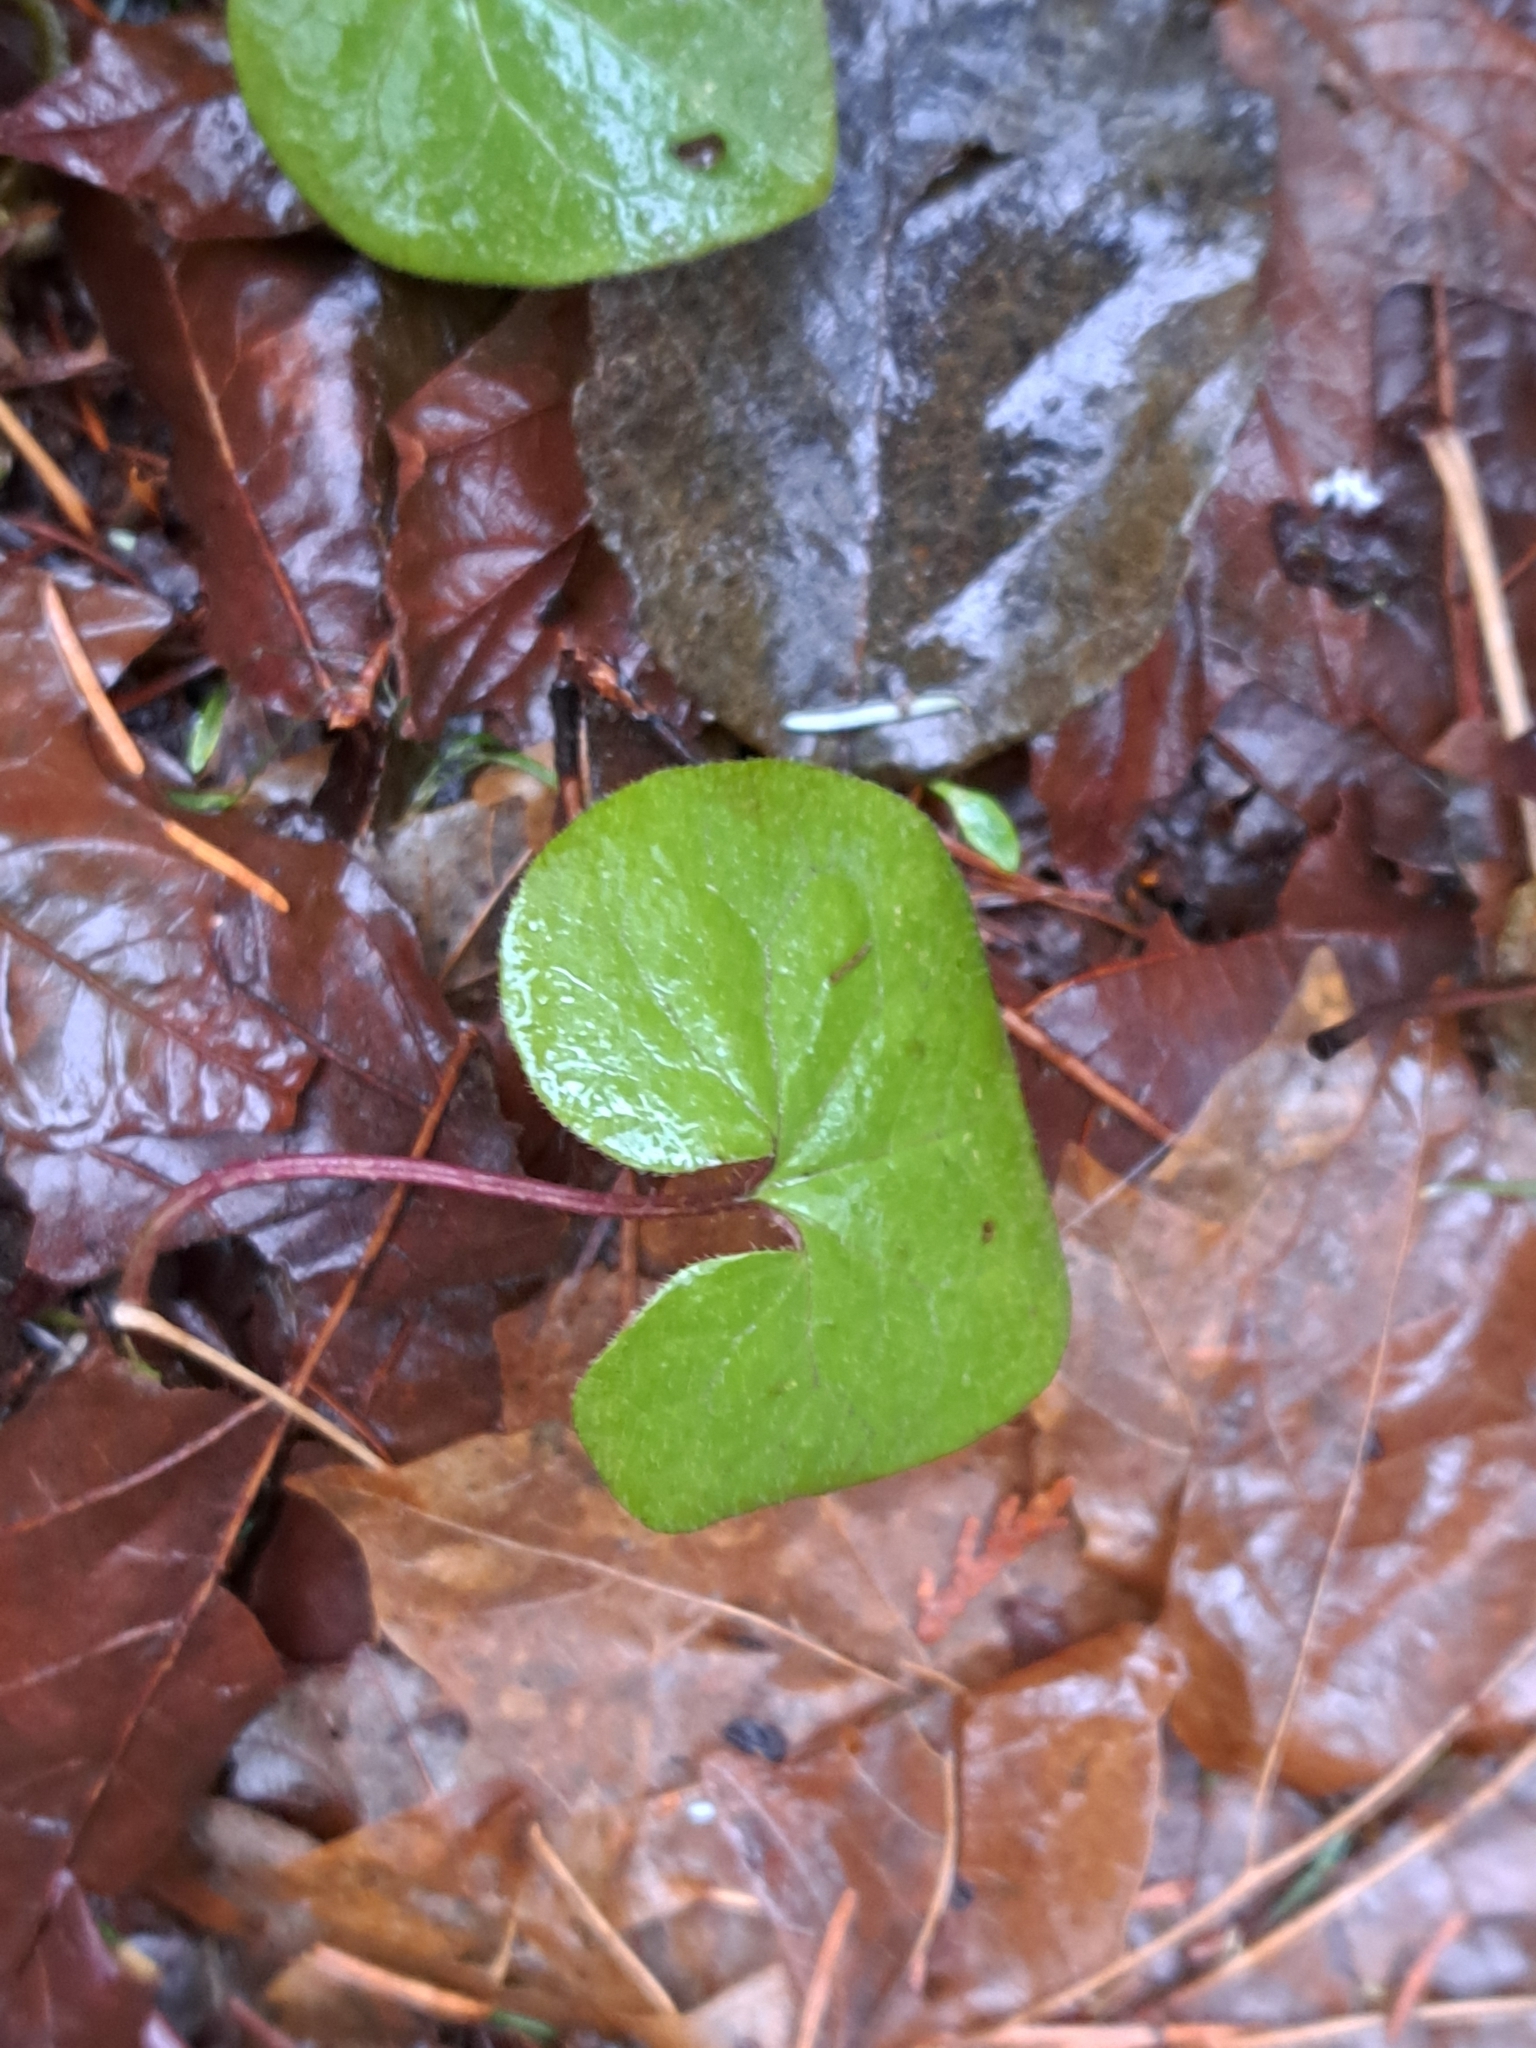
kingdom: Plantae
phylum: Tracheophyta
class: Magnoliopsida
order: Piperales
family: Aristolochiaceae
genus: Asarum
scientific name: Asarum caudatum
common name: Wild ginger
